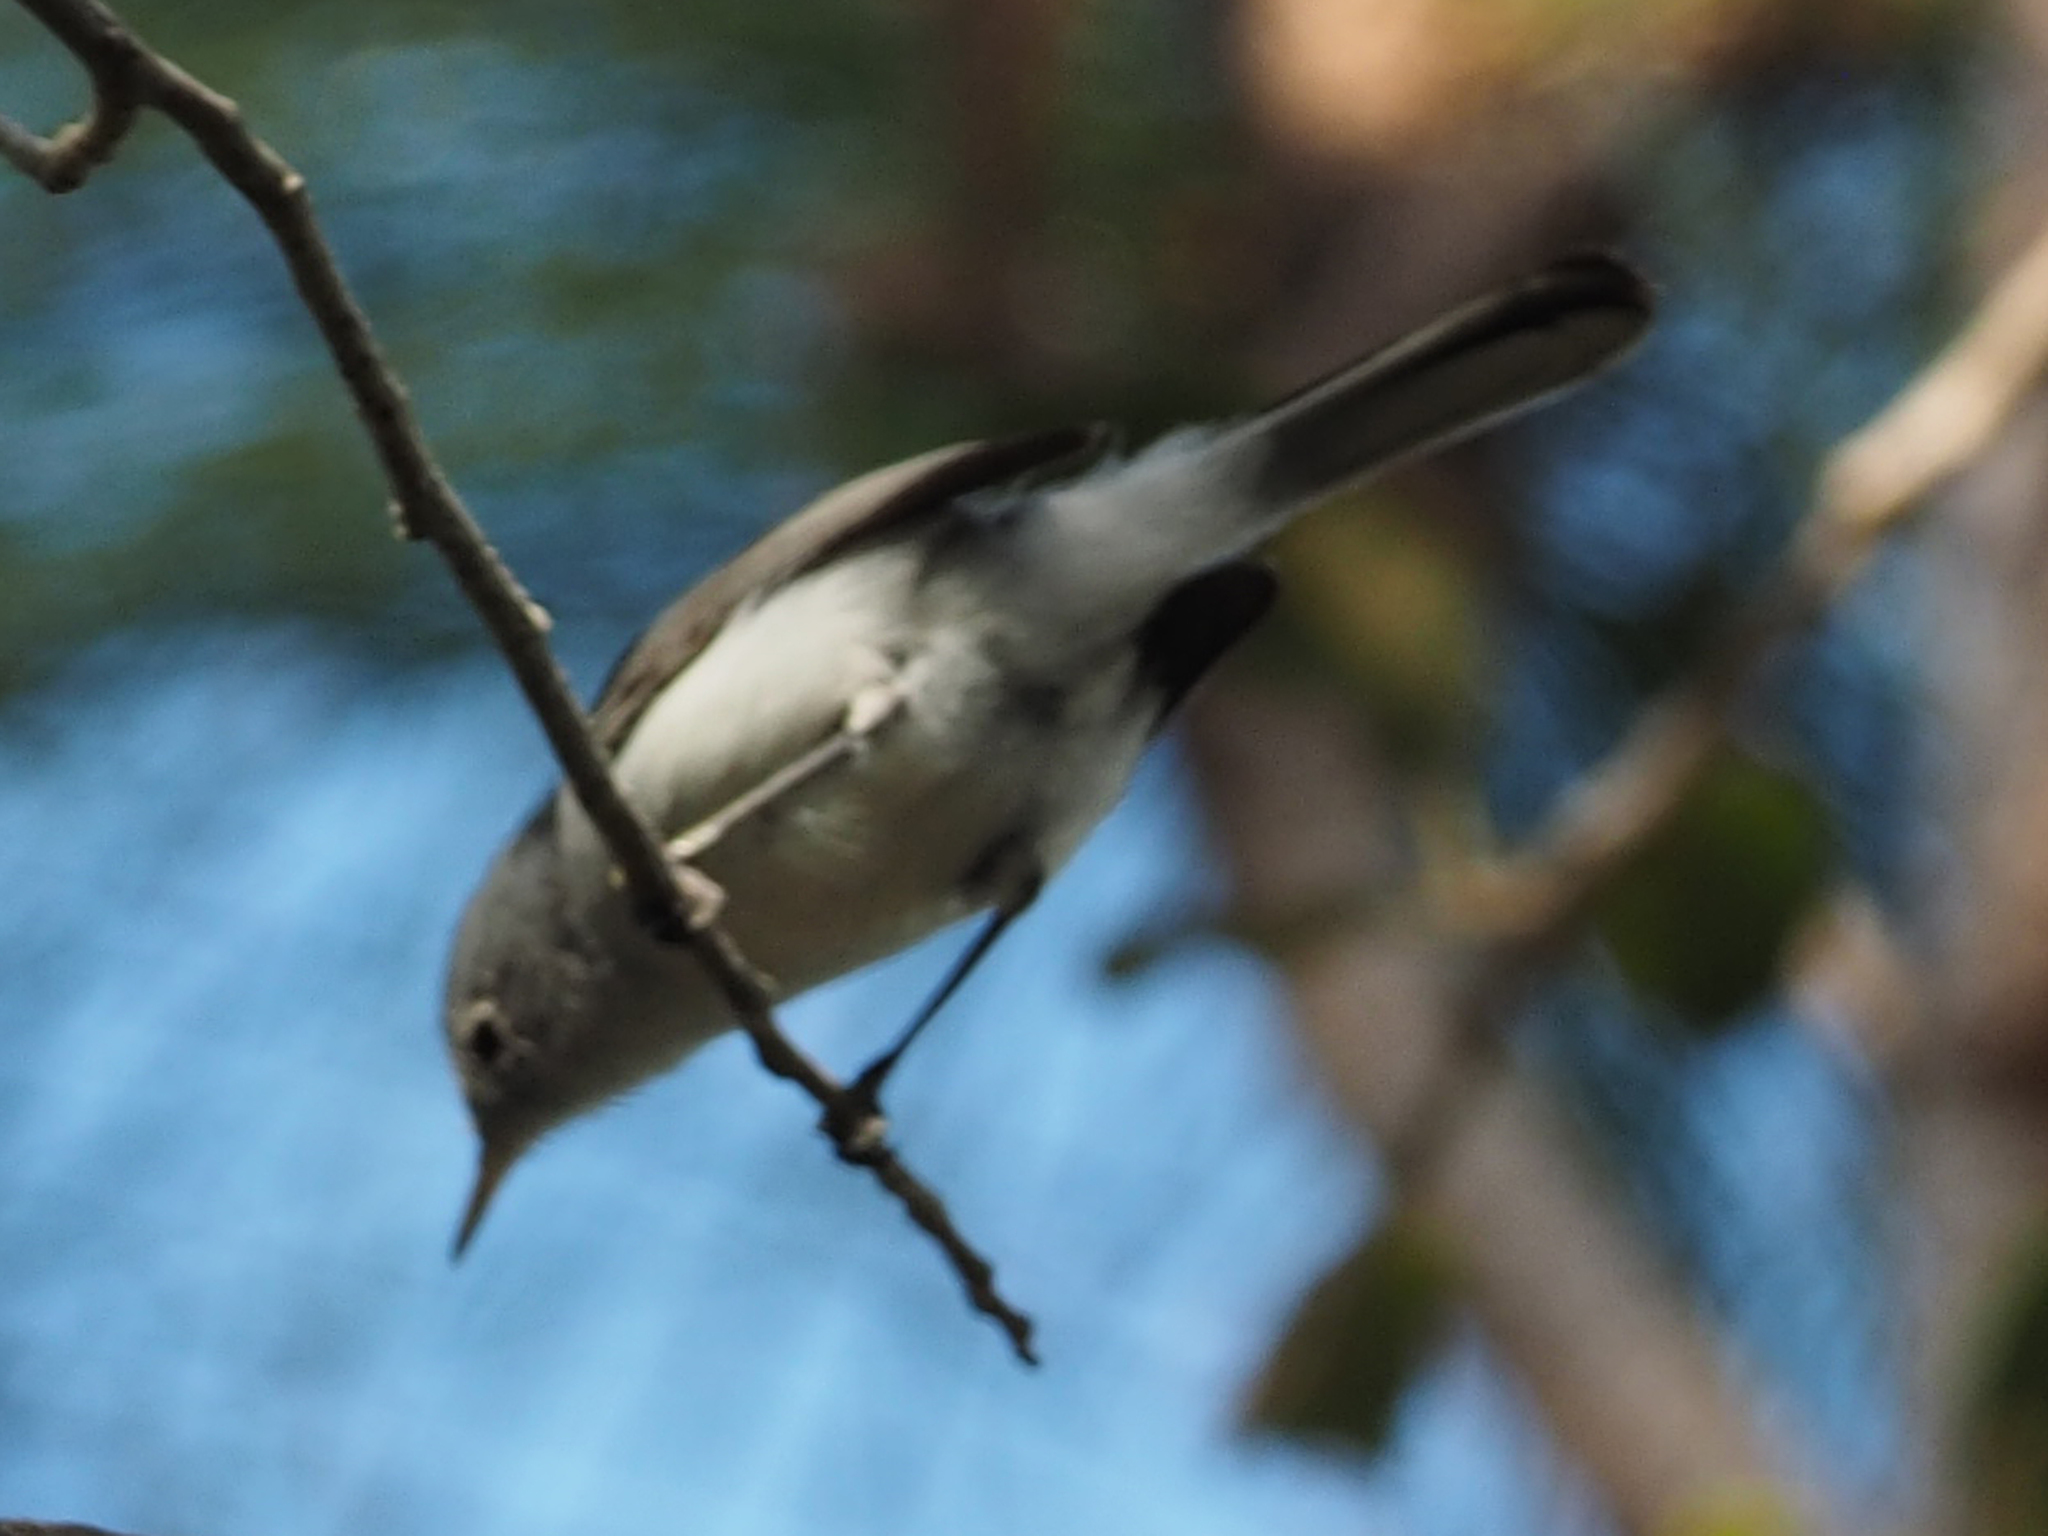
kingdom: Animalia
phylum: Chordata
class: Aves
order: Passeriformes
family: Polioptilidae
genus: Polioptila
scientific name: Polioptila caerulea
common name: Blue-gray gnatcatcher
